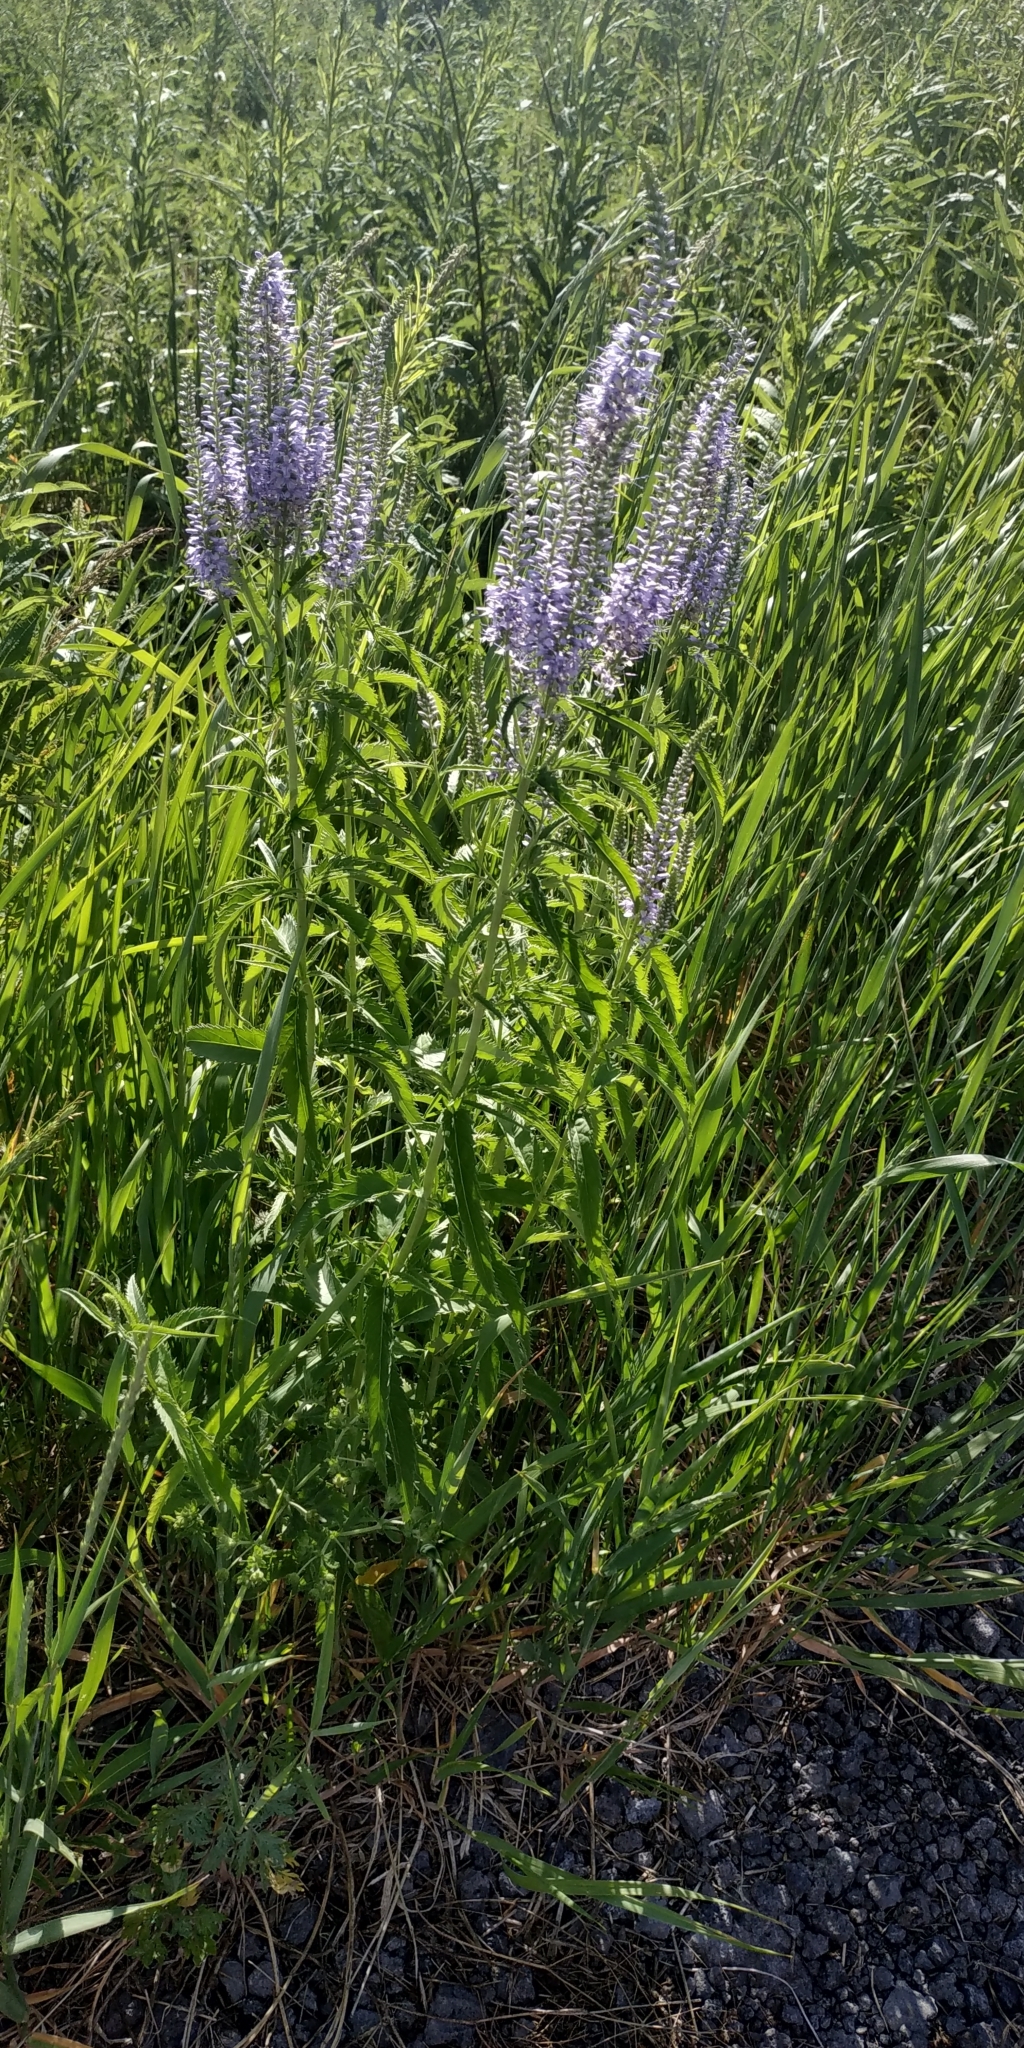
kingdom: Plantae
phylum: Tracheophyta
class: Magnoliopsida
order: Lamiales
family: Plantaginaceae
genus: Veronica
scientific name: Veronica longifolia
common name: Garden speedwell
